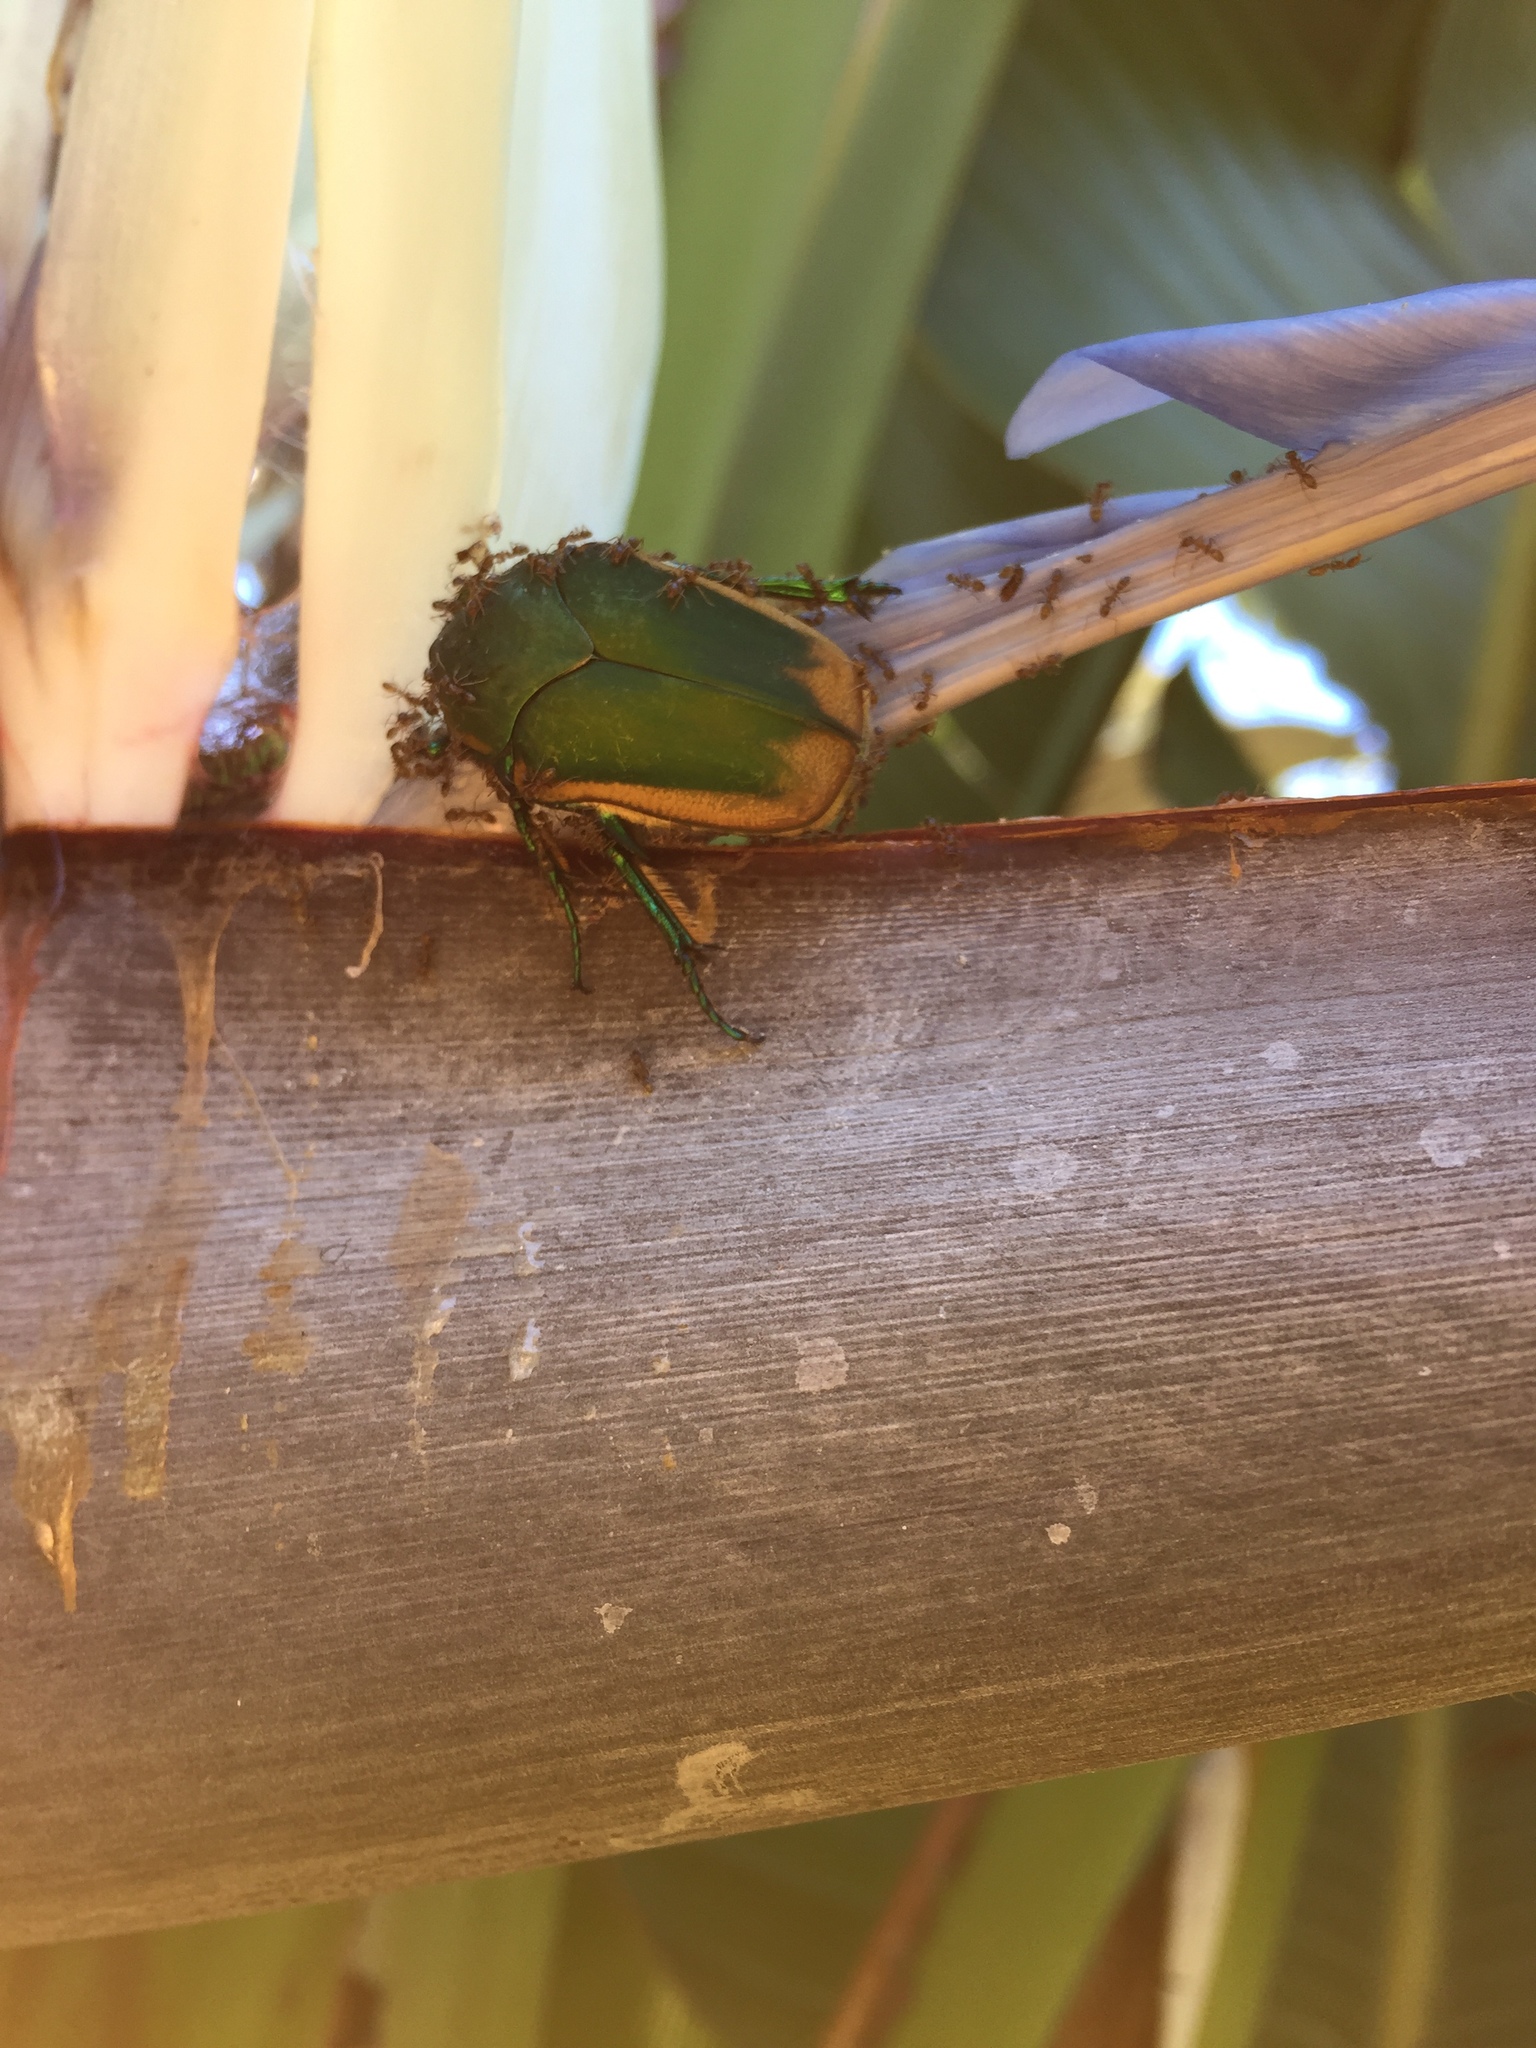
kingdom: Animalia
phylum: Arthropoda
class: Insecta
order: Coleoptera
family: Scarabaeidae
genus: Cotinis
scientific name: Cotinis mutabilis
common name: Figeater beetle
